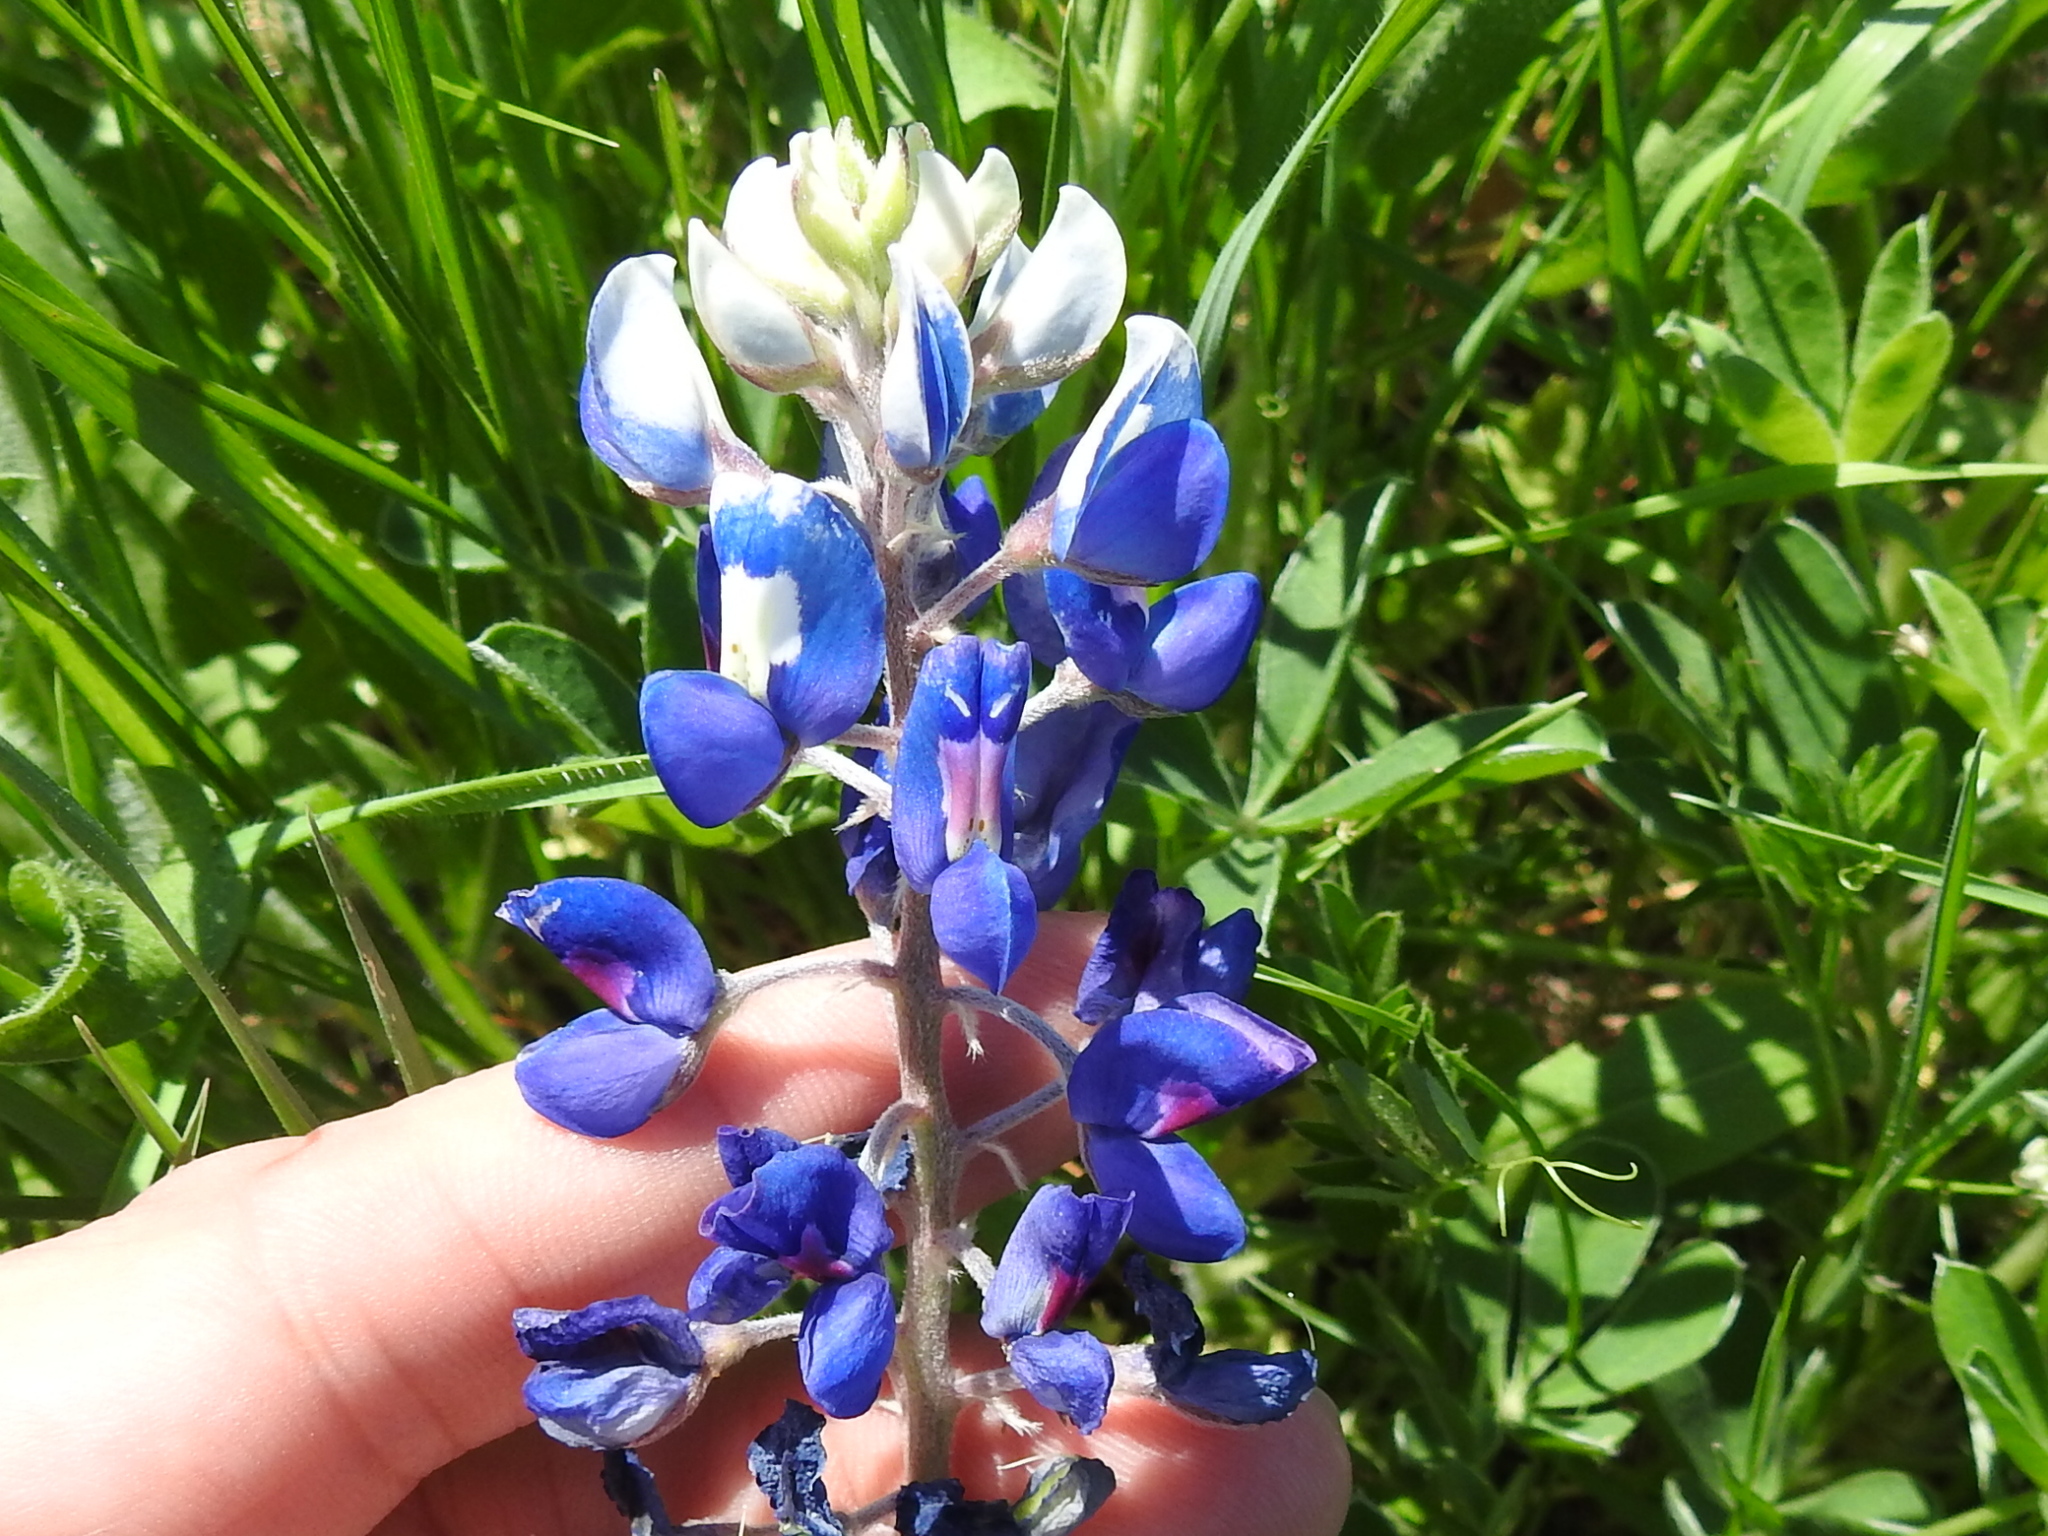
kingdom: Plantae
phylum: Tracheophyta
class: Magnoliopsida
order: Fabales
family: Fabaceae
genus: Lupinus
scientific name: Lupinus texensis
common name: Texas bluebonnet
